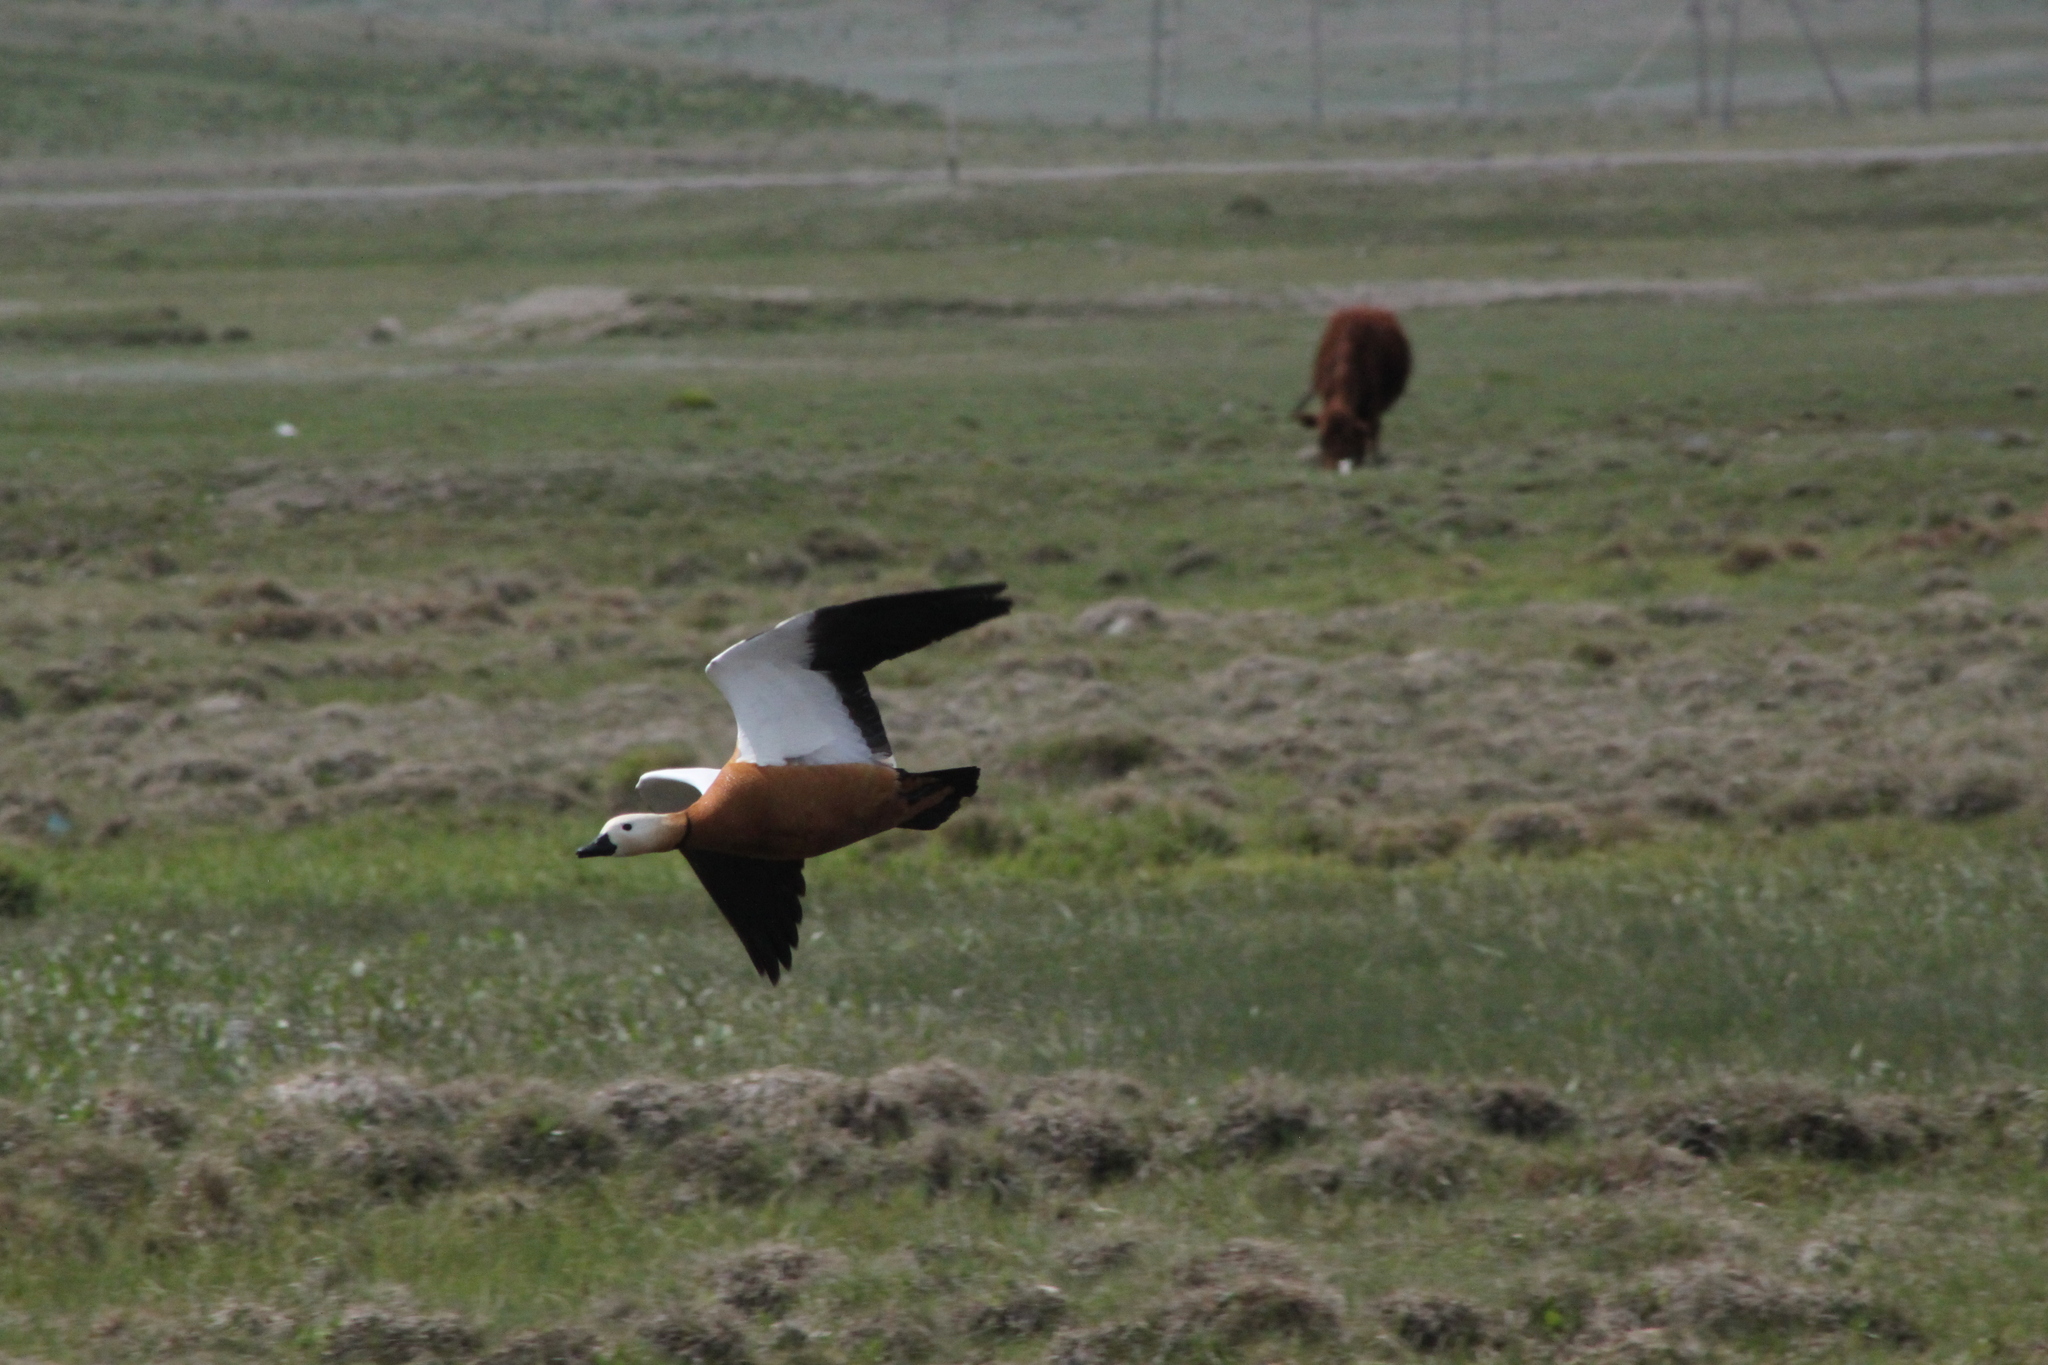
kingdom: Animalia
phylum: Chordata
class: Aves
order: Anseriformes
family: Anatidae
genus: Tadorna
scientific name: Tadorna ferruginea
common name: Ruddy shelduck
